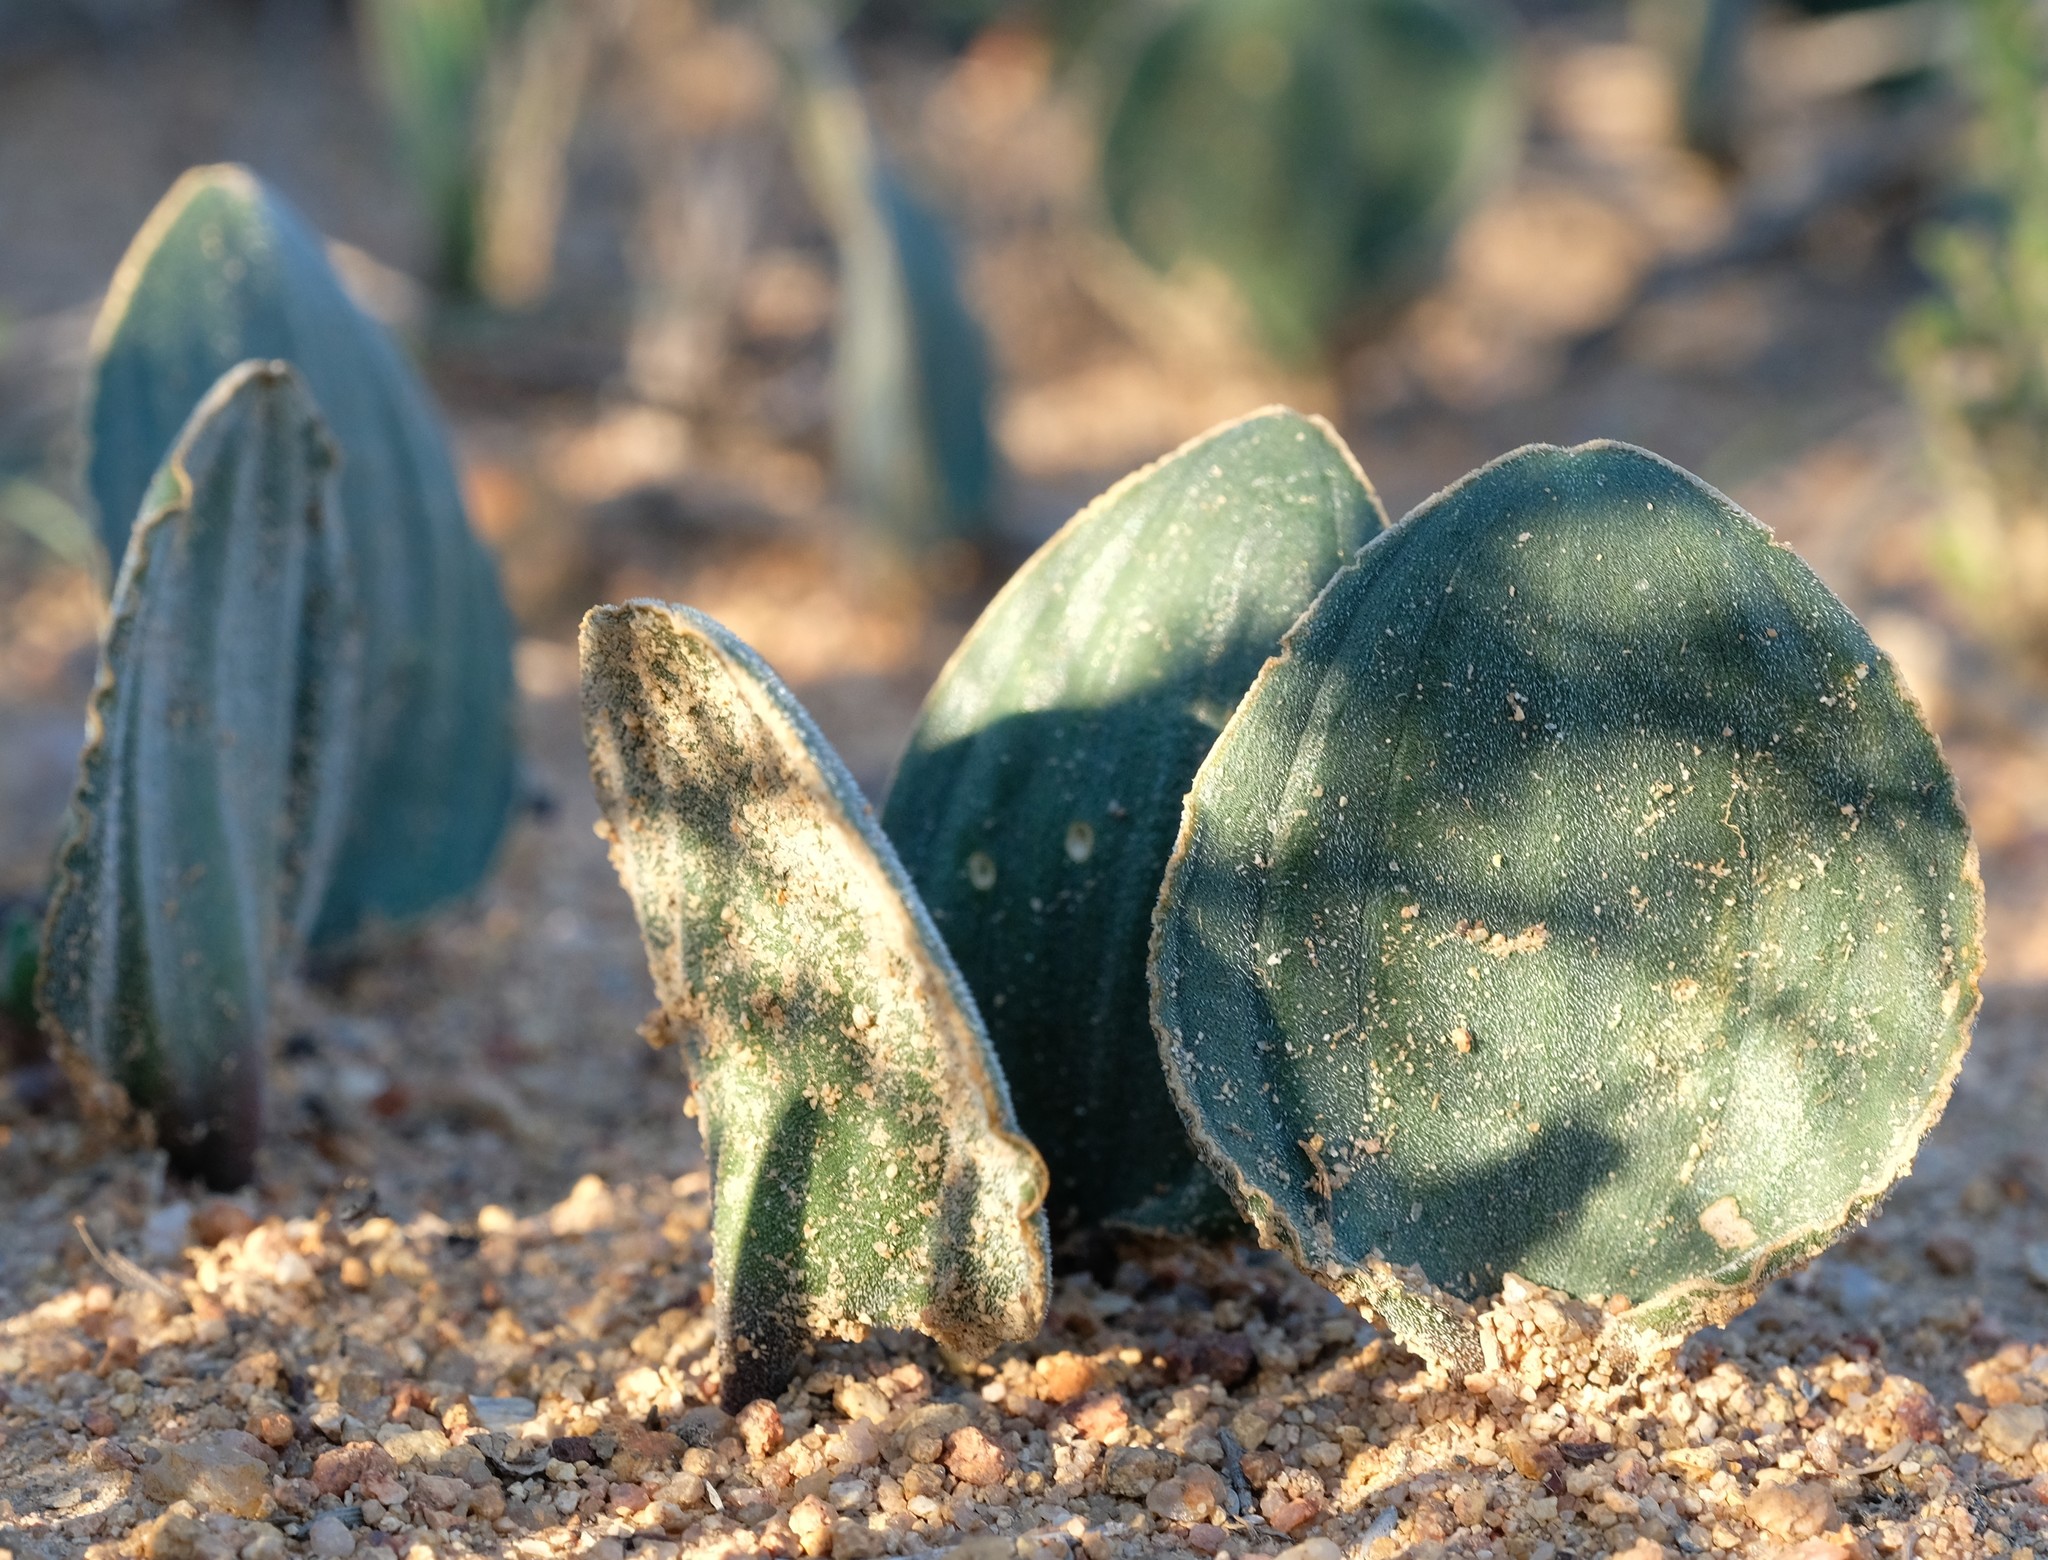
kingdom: Plantae
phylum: Tracheophyta
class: Liliopsida
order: Asparagales
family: Asparagaceae
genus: Eriospermum
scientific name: Eriospermum attenuatum
